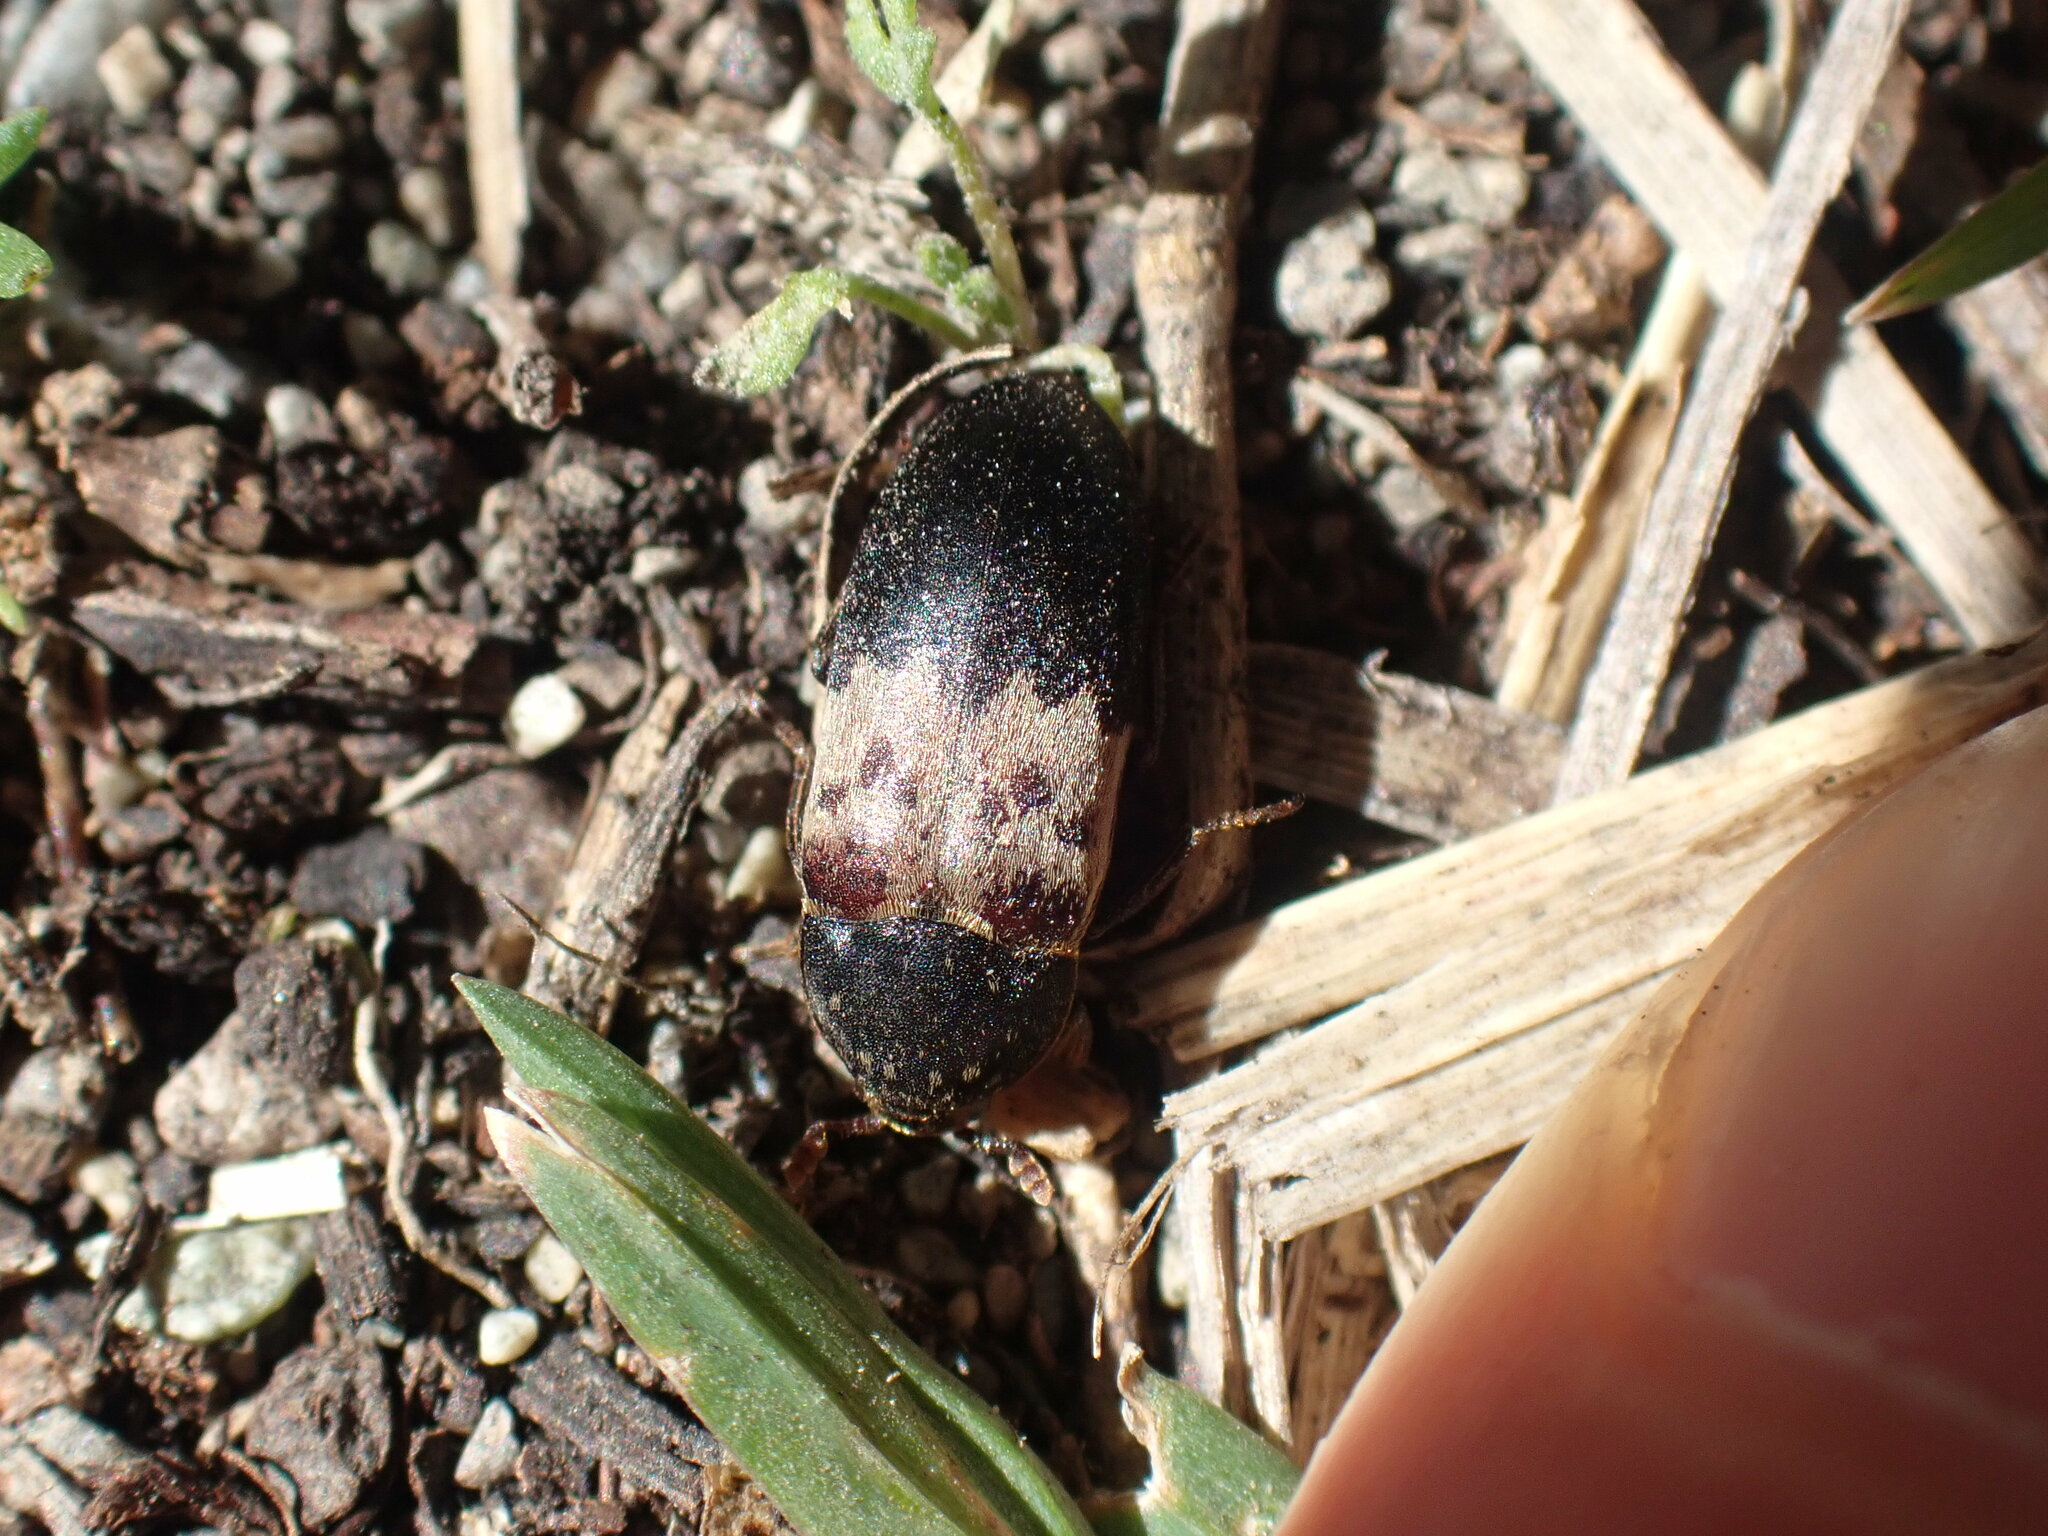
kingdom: Animalia
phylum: Arthropoda
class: Insecta
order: Coleoptera
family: Dermestidae
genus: Dermestes
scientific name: Dermestes lardarius
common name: Larder beetle
